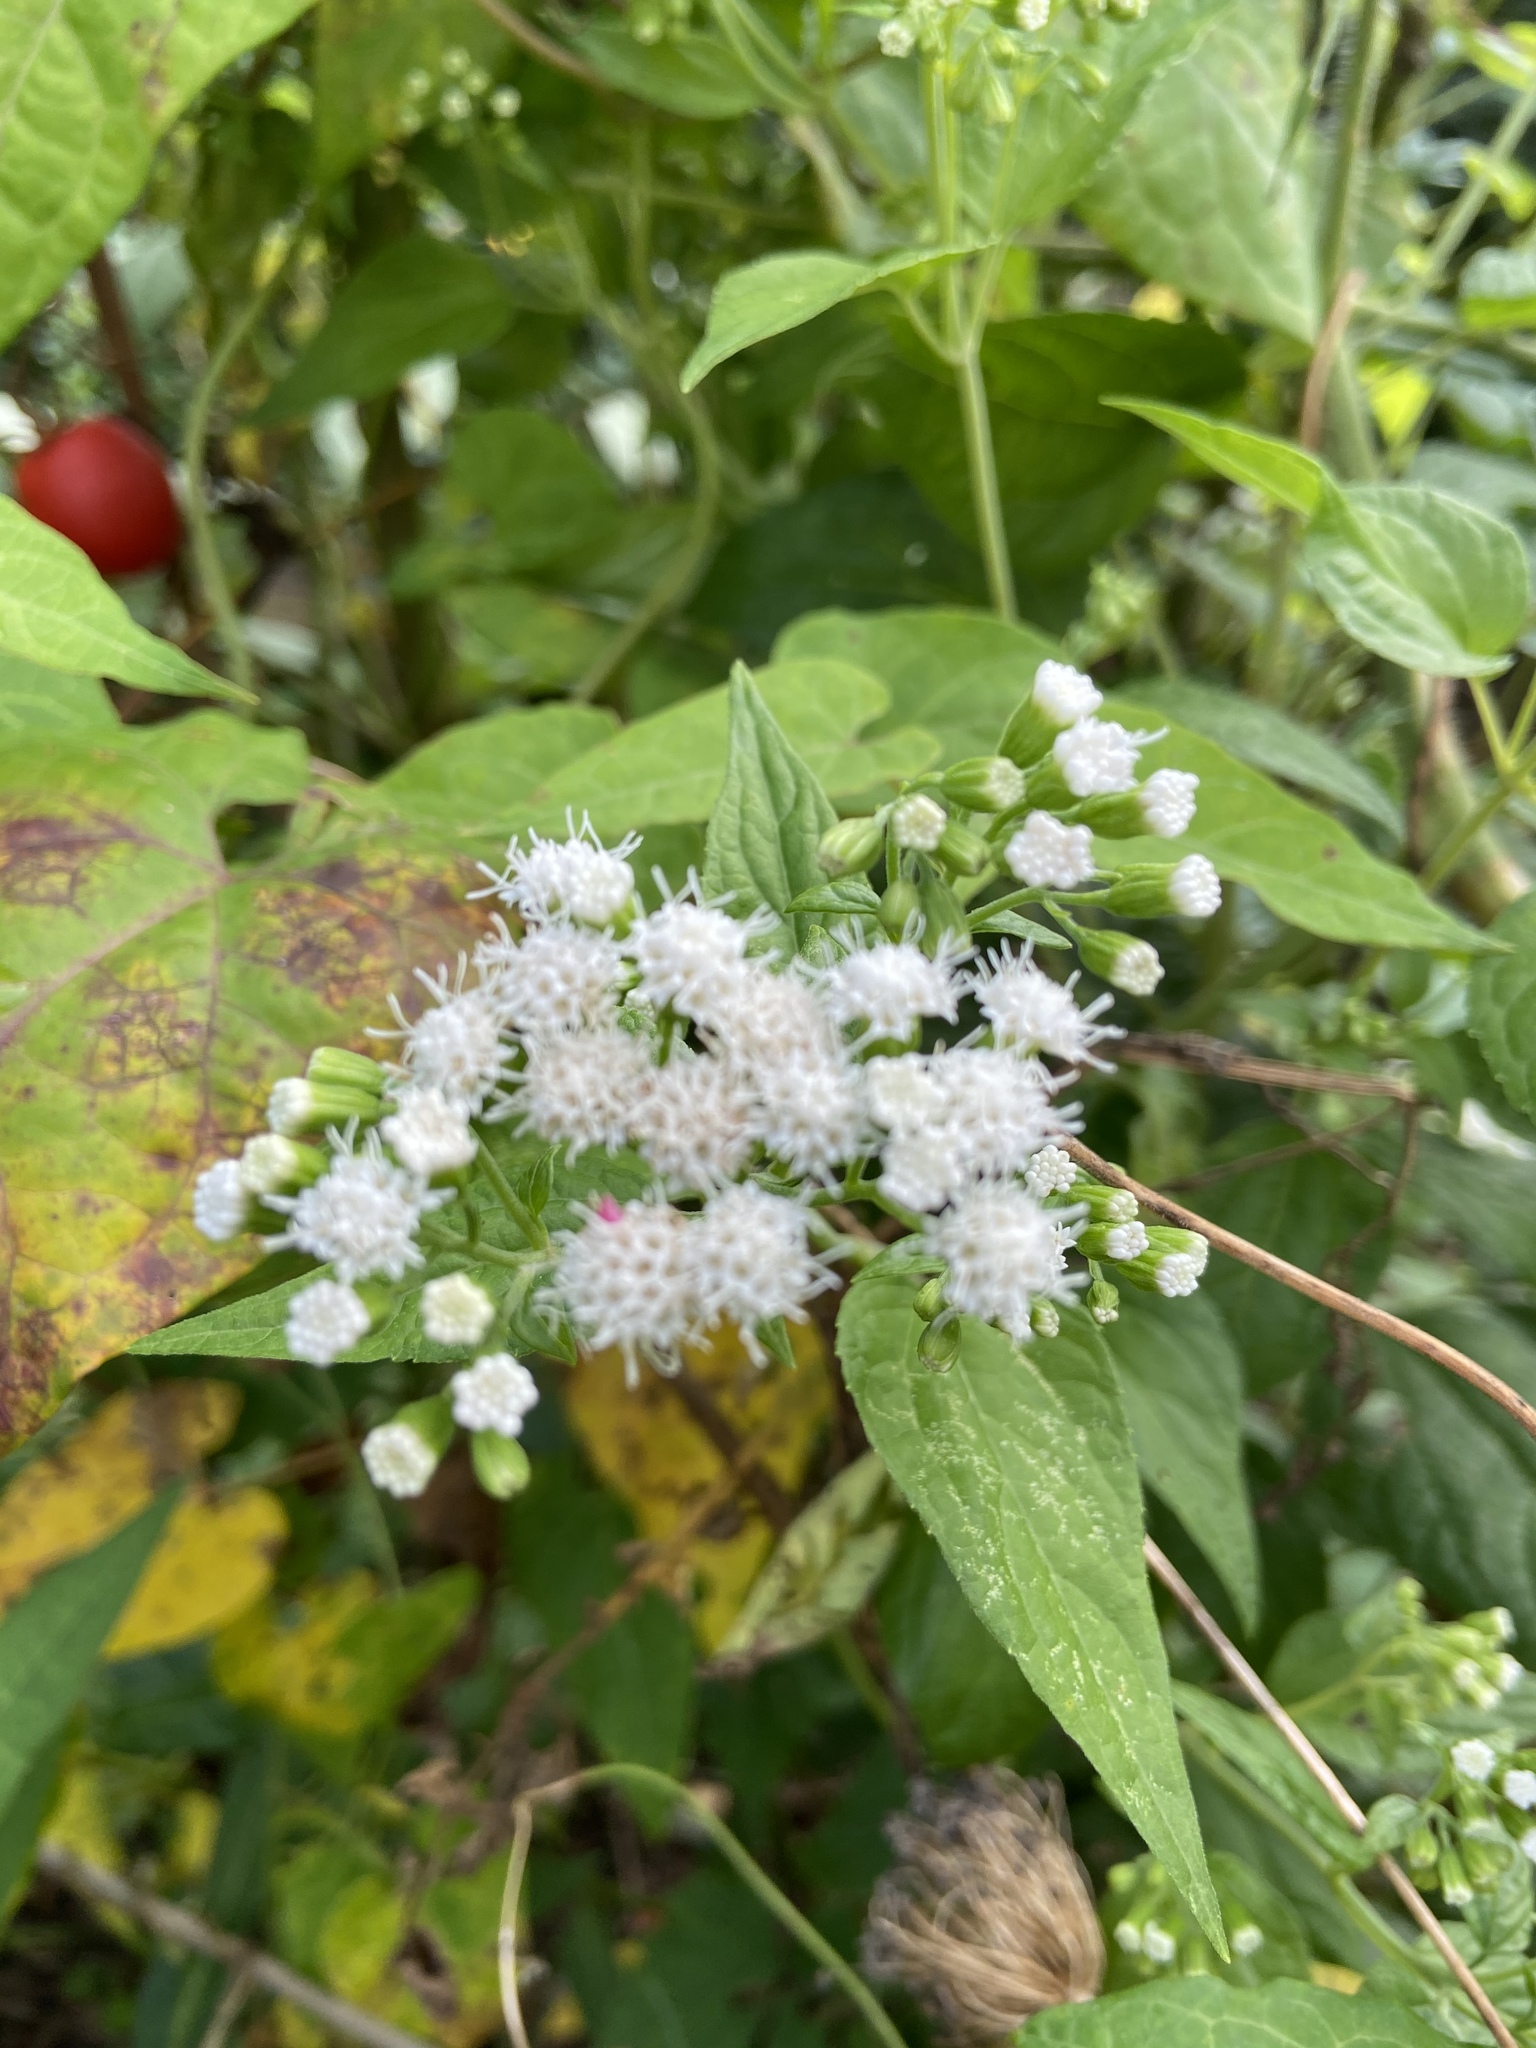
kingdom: Plantae
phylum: Tracheophyta
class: Magnoliopsida
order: Asterales
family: Asteraceae
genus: Ageratina
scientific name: Ageratina altissima
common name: White snakeroot
